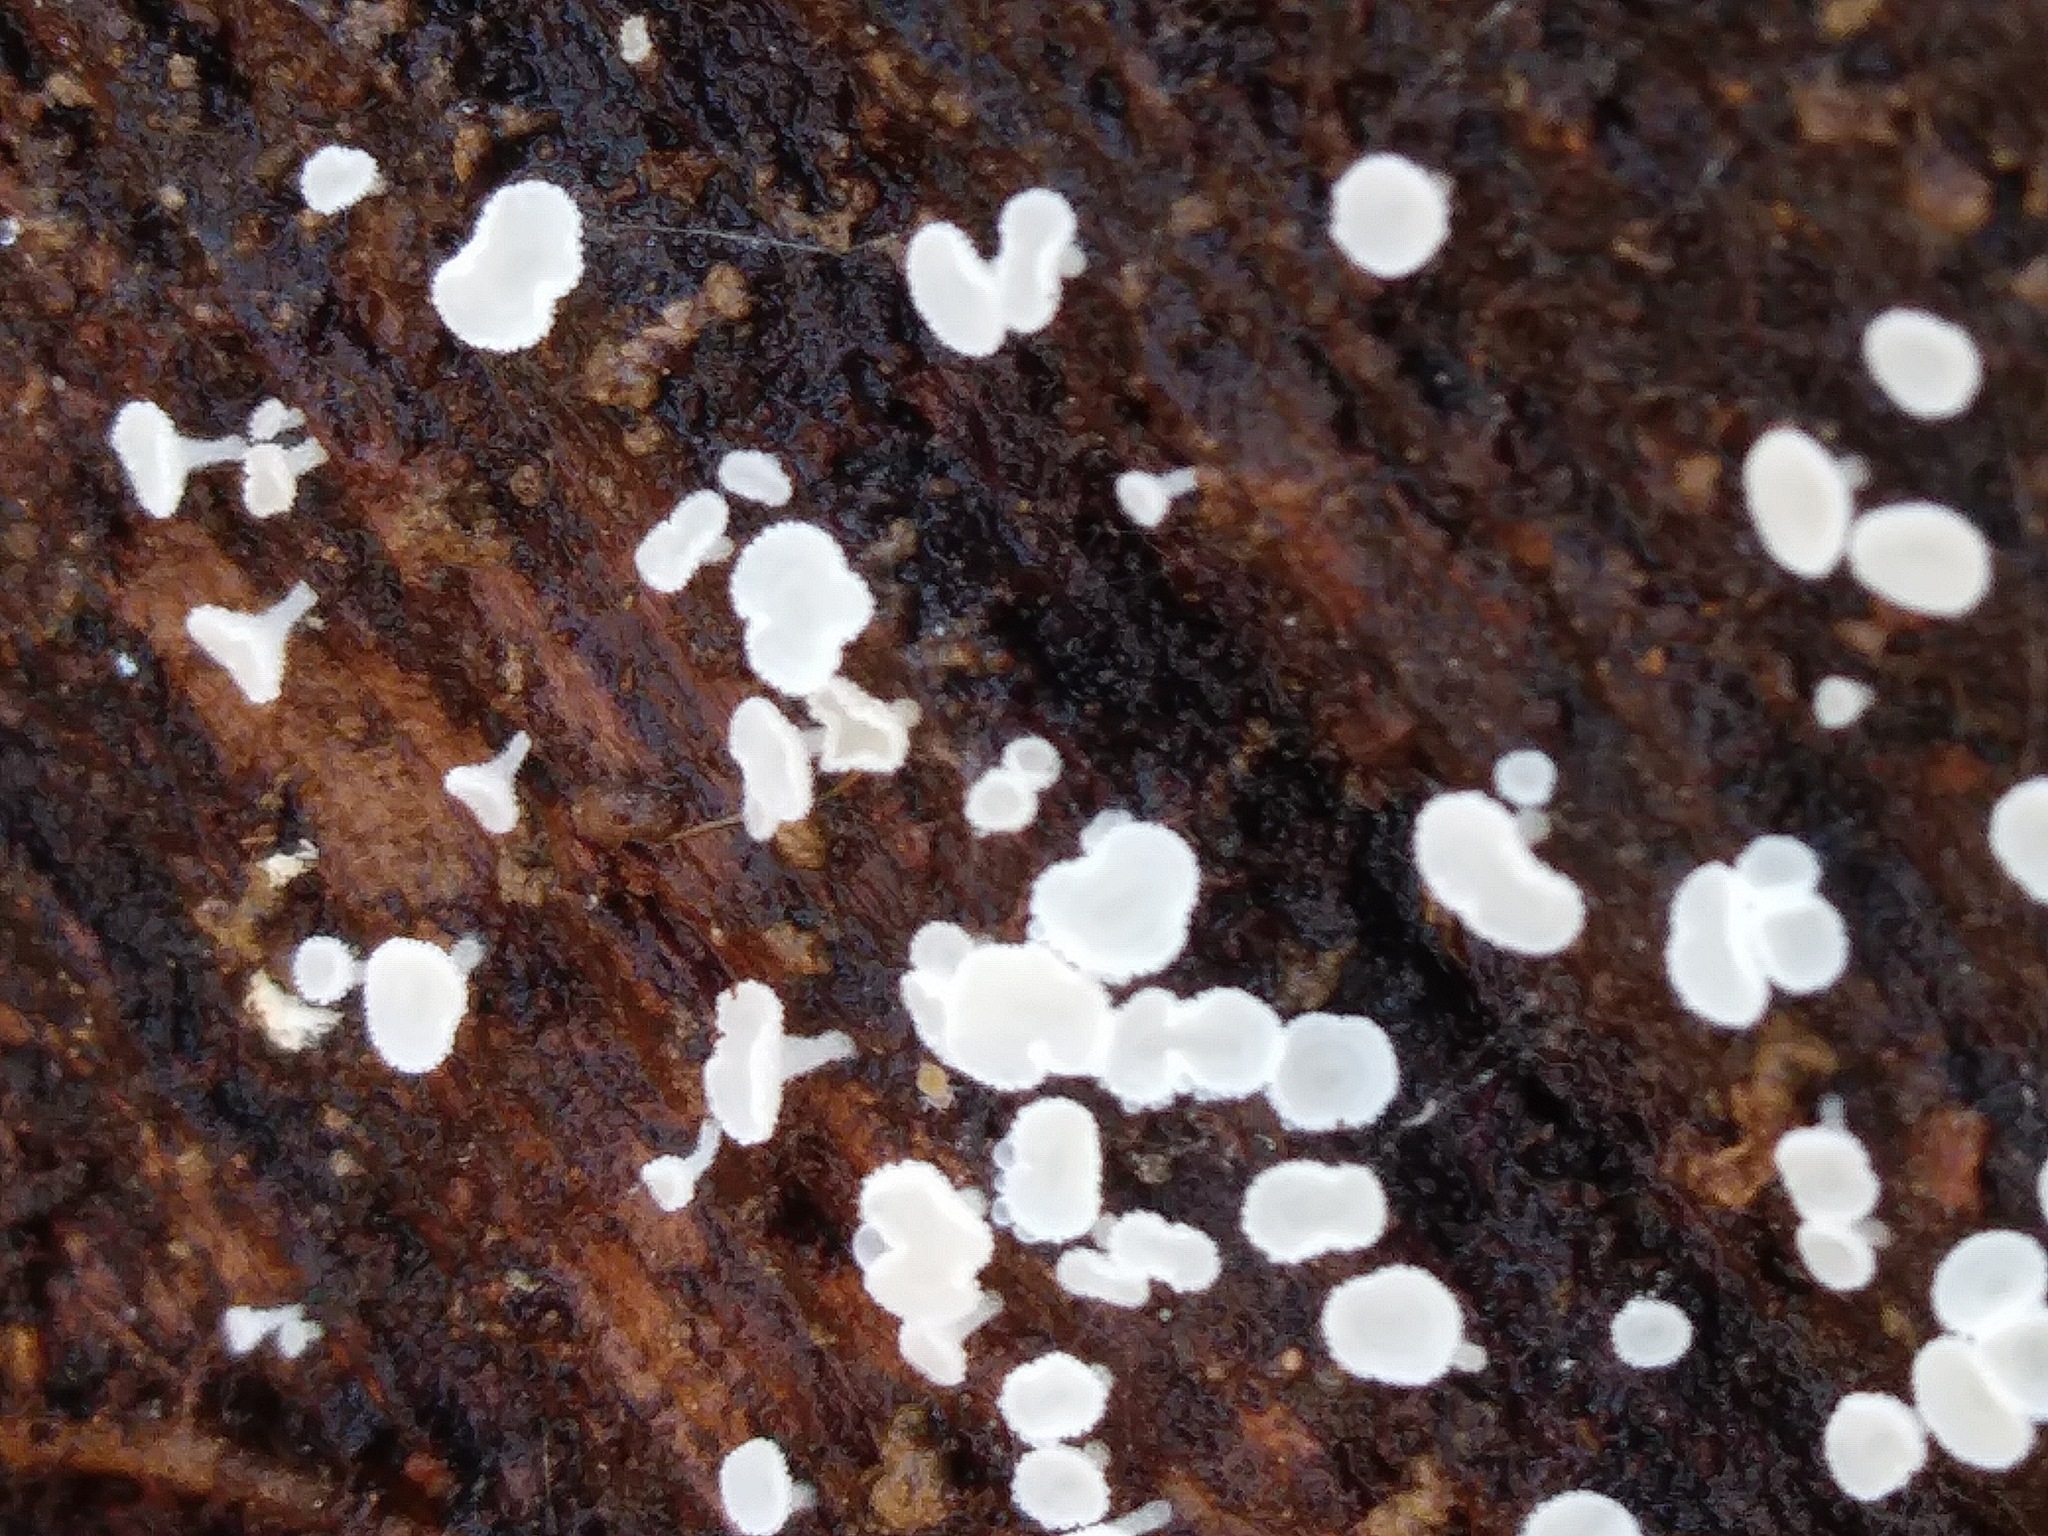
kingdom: Fungi
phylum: Ascomycota
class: Leotiomycetes
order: Helotiales
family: Lachnaceae
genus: Lachnum
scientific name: Lachnum virgineum
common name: Snowy disco
